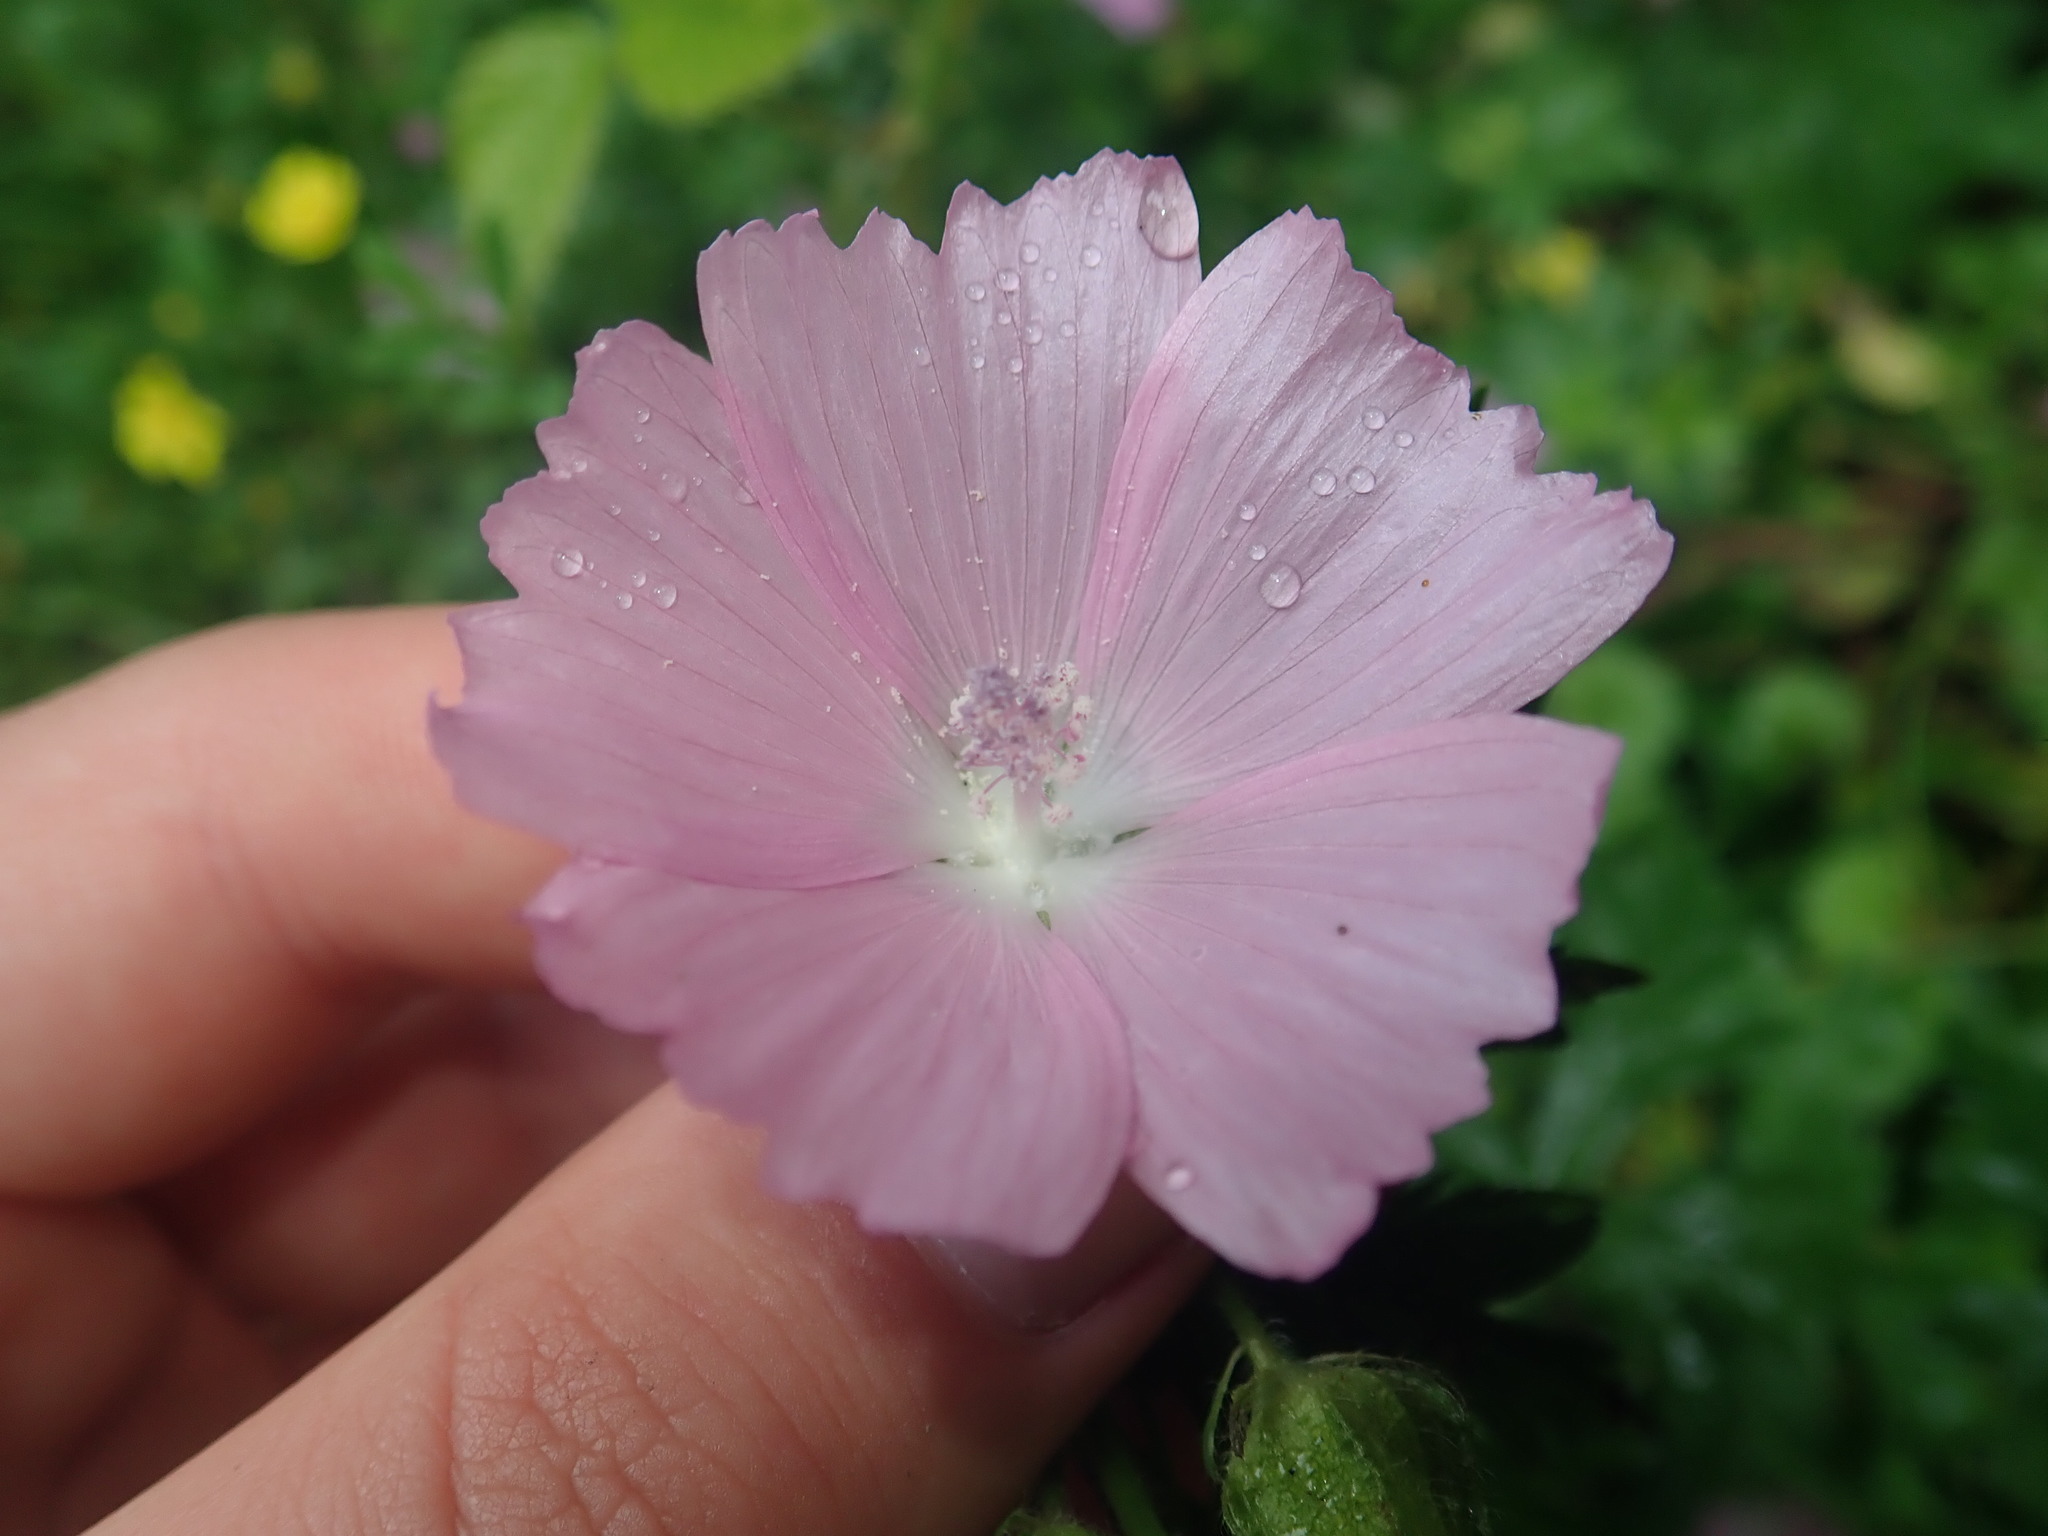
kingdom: Plantae
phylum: Tracheophyta
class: Magnoliopsida
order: Malvales
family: Malvaceae
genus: Malva
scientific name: Malva moschata
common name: Musk mallow
